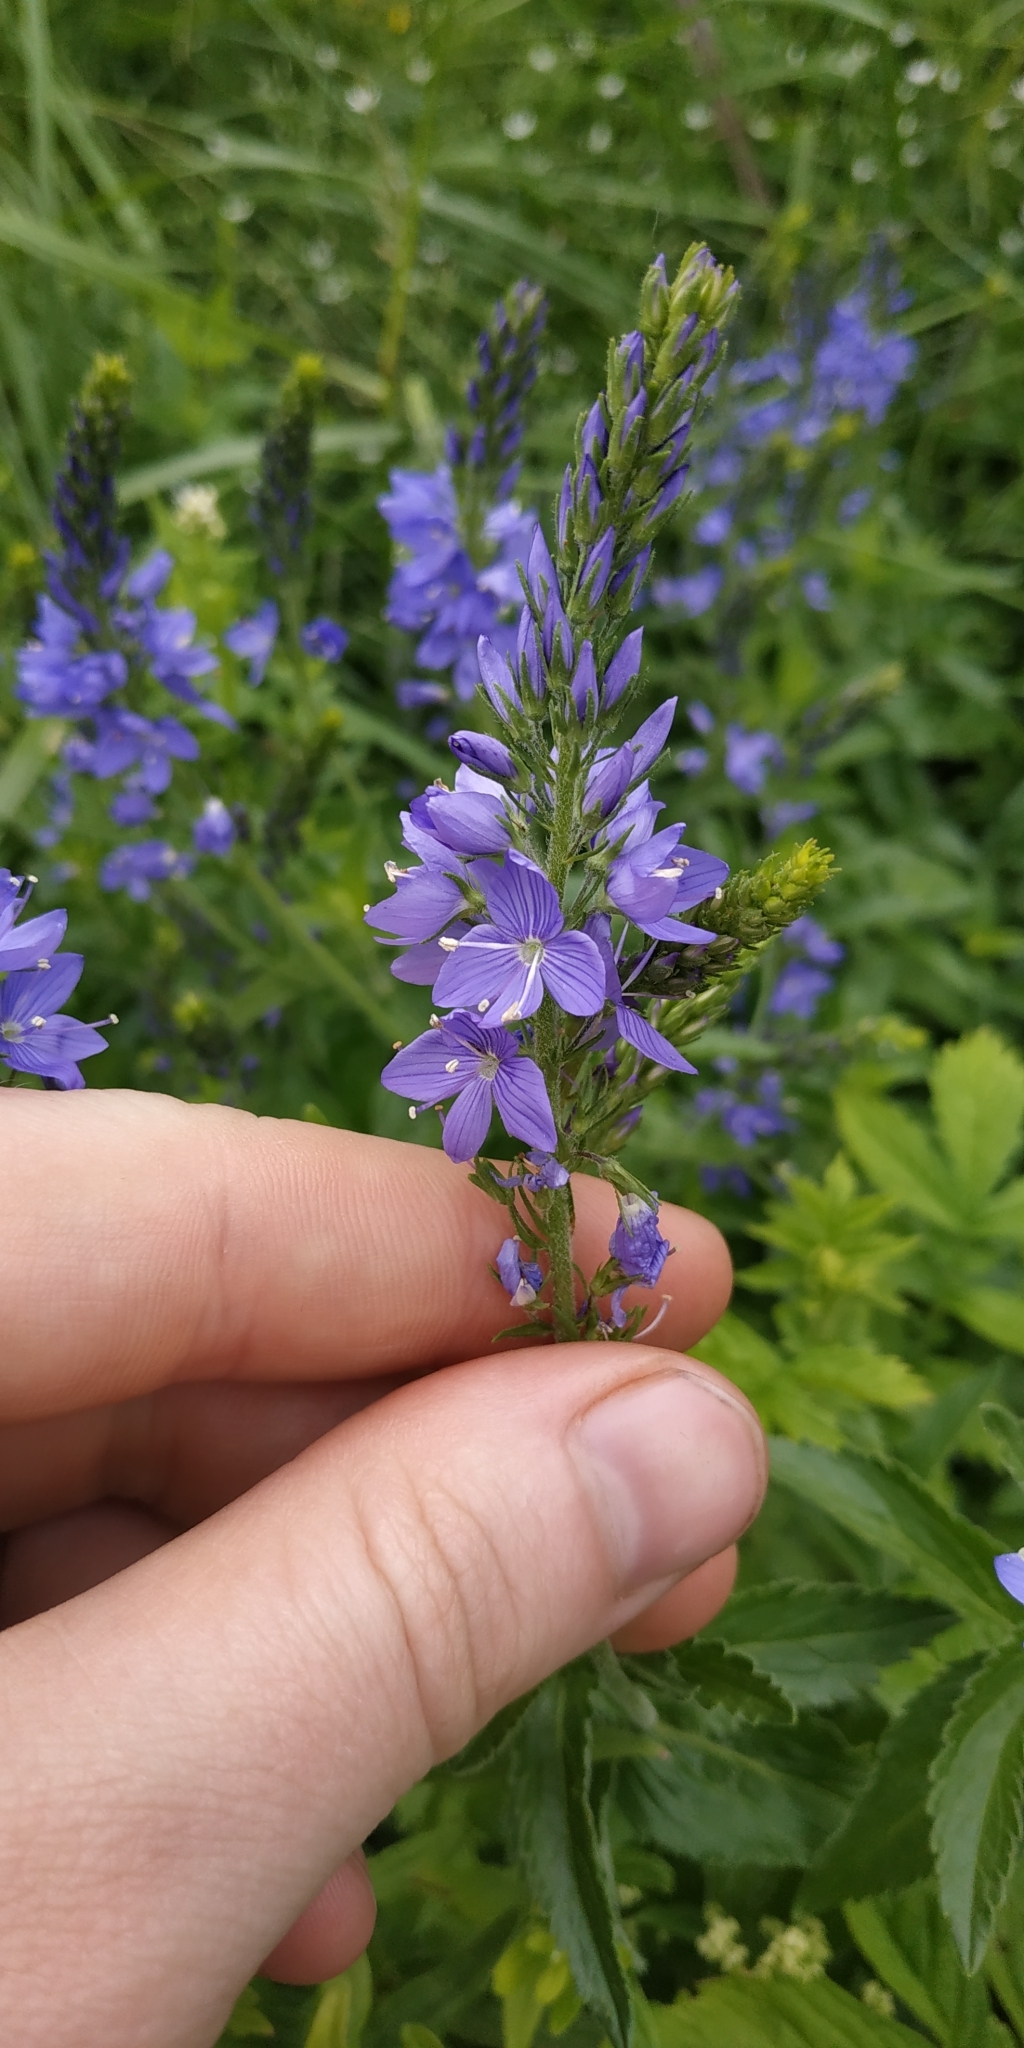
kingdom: Plantae
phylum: Tracheophyta
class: Magnoliopsida
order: Lamiales
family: Plantaginaceae
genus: Veronica
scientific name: Veronica teucrium
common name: Large speedwell
